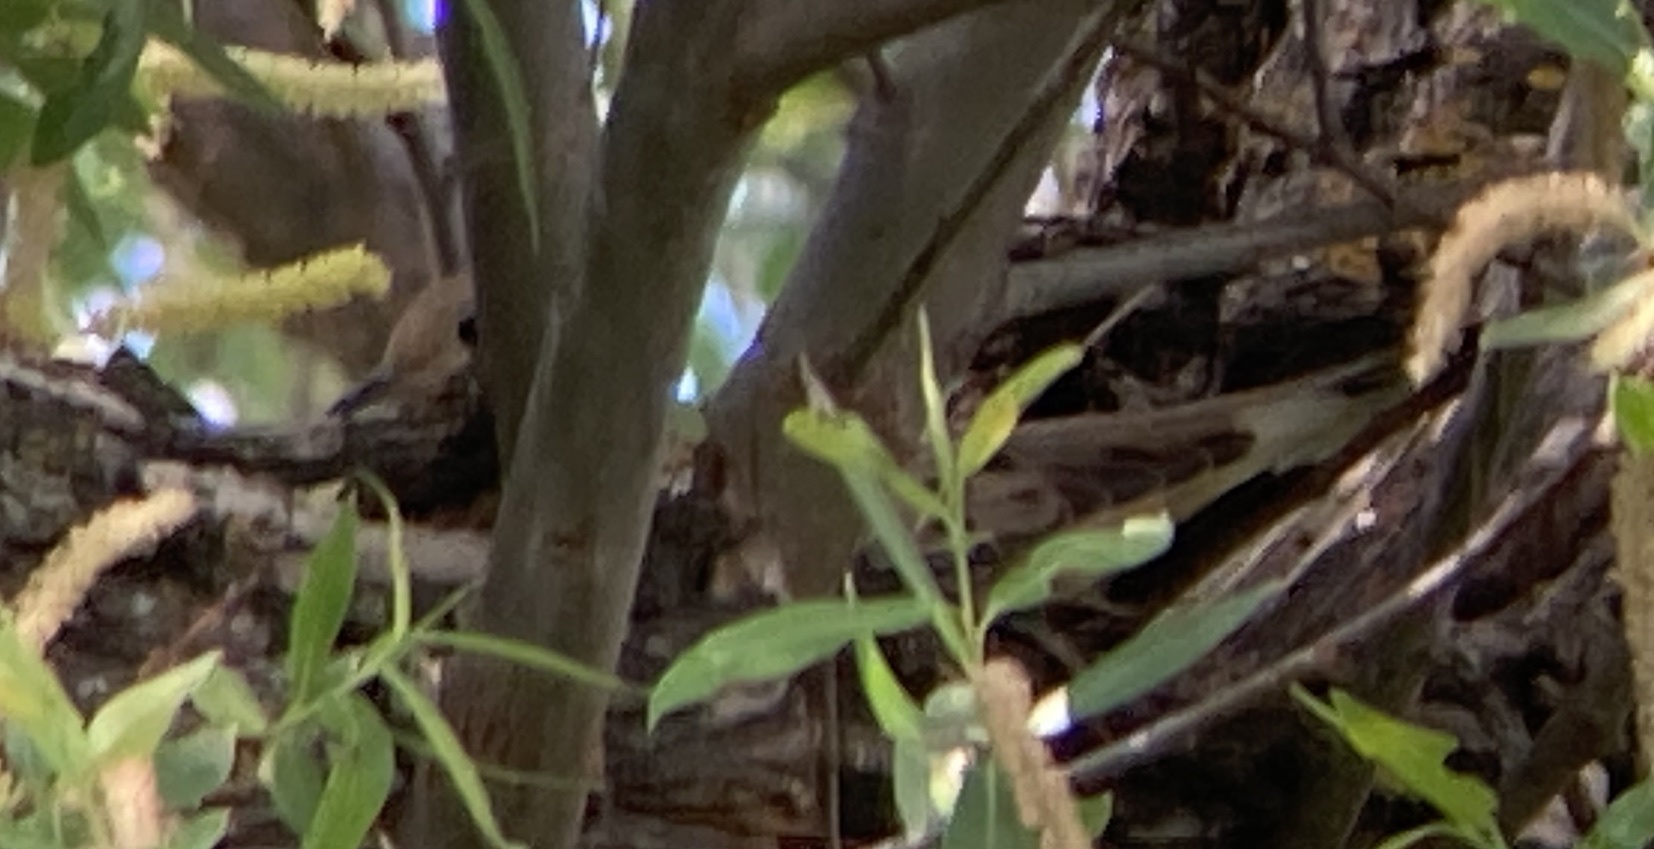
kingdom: Animalia
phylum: Chordata
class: Aves
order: Columbiformes
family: Columbidae
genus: Zenaida
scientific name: Zenaida macroura
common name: Mourning dove
